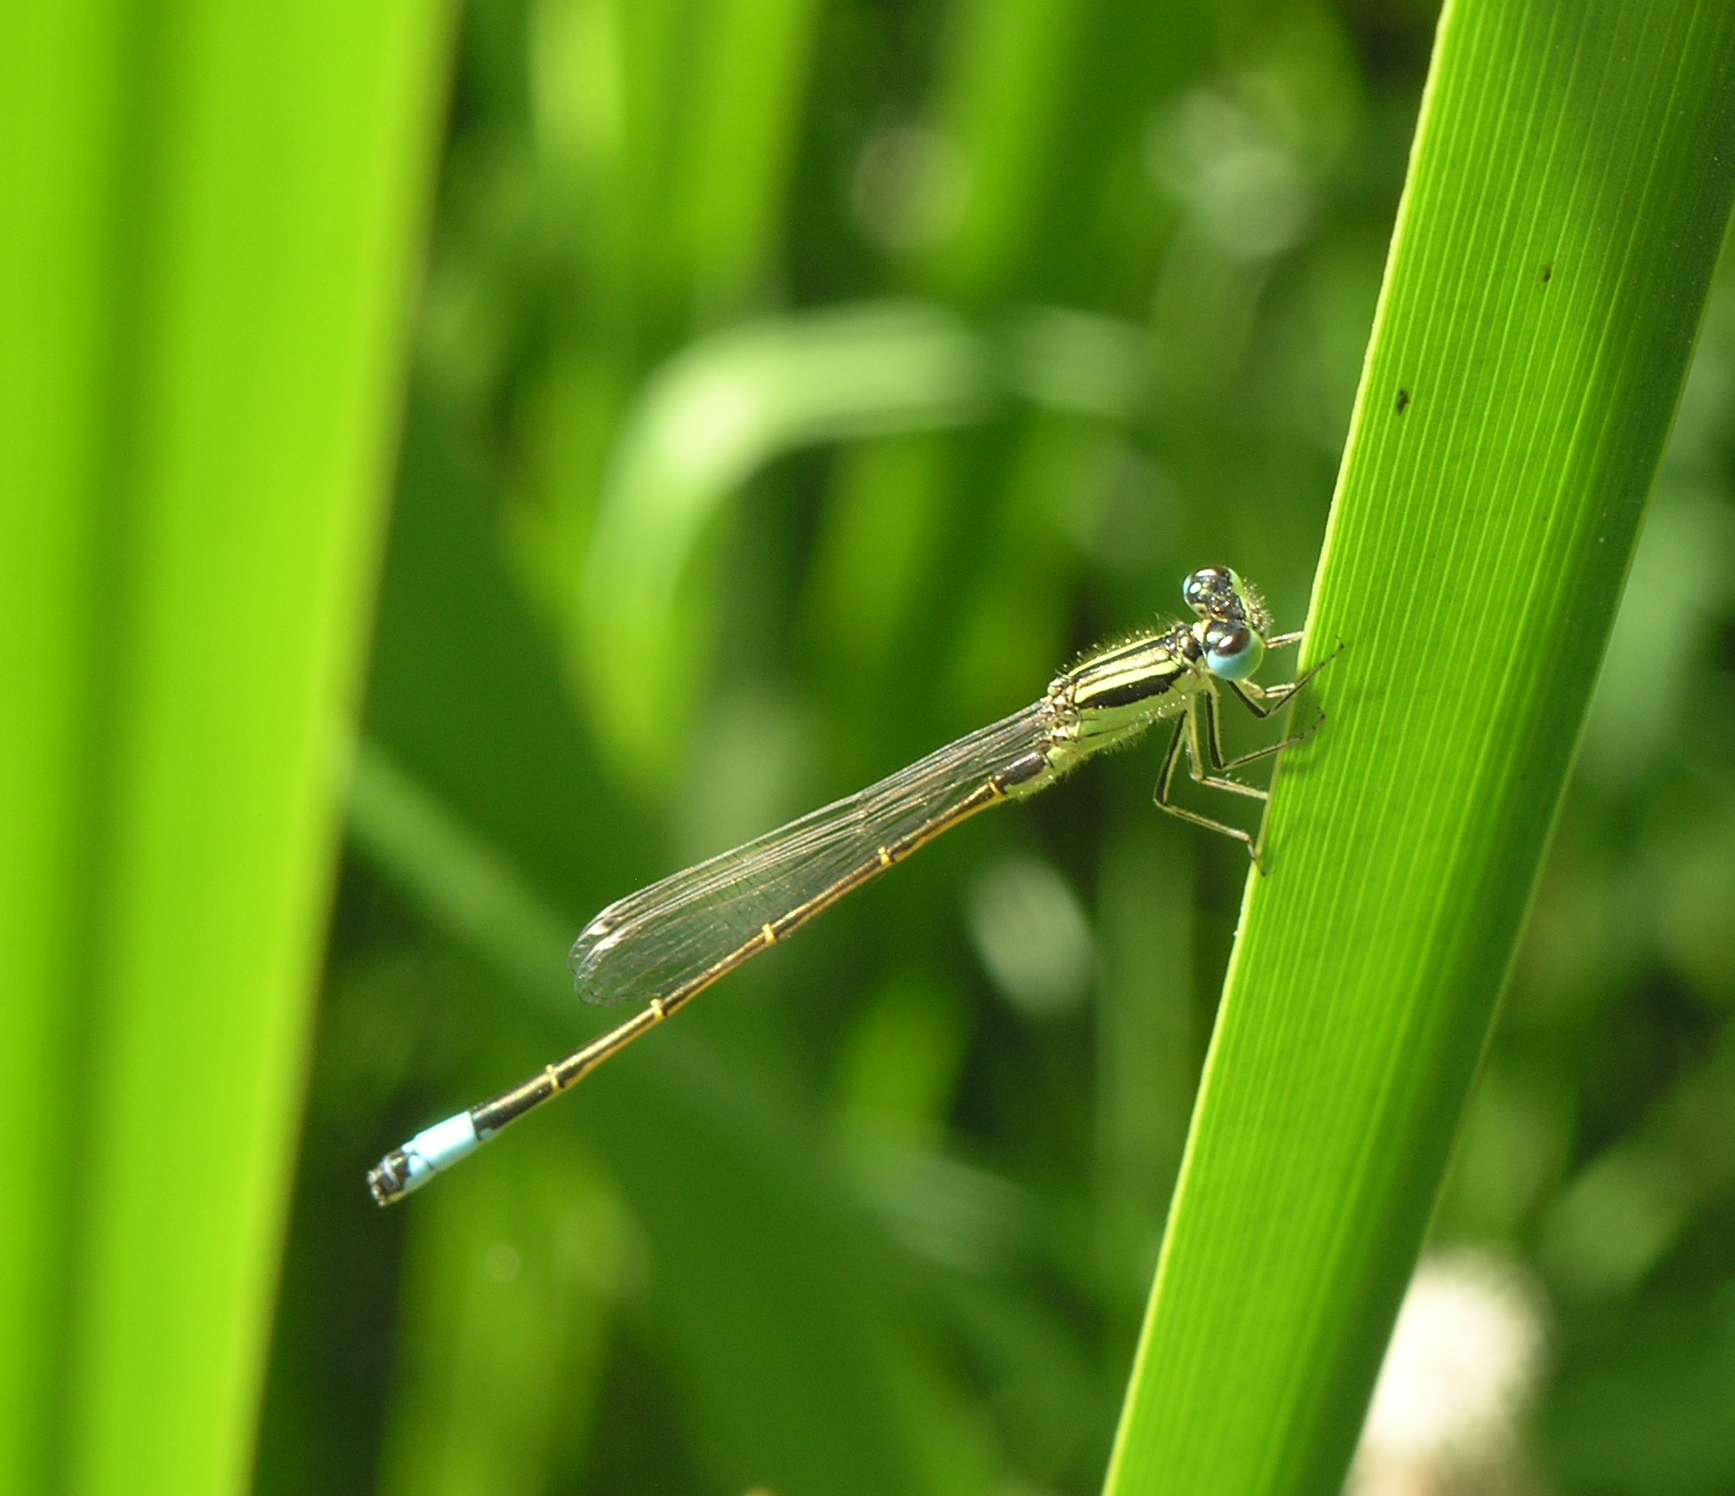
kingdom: Animalia
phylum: Arthropoda
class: Insecta
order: Odonata
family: Coenagrionidae
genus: Ischnura
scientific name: Ischnura graellsii
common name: Iberian bluetail
